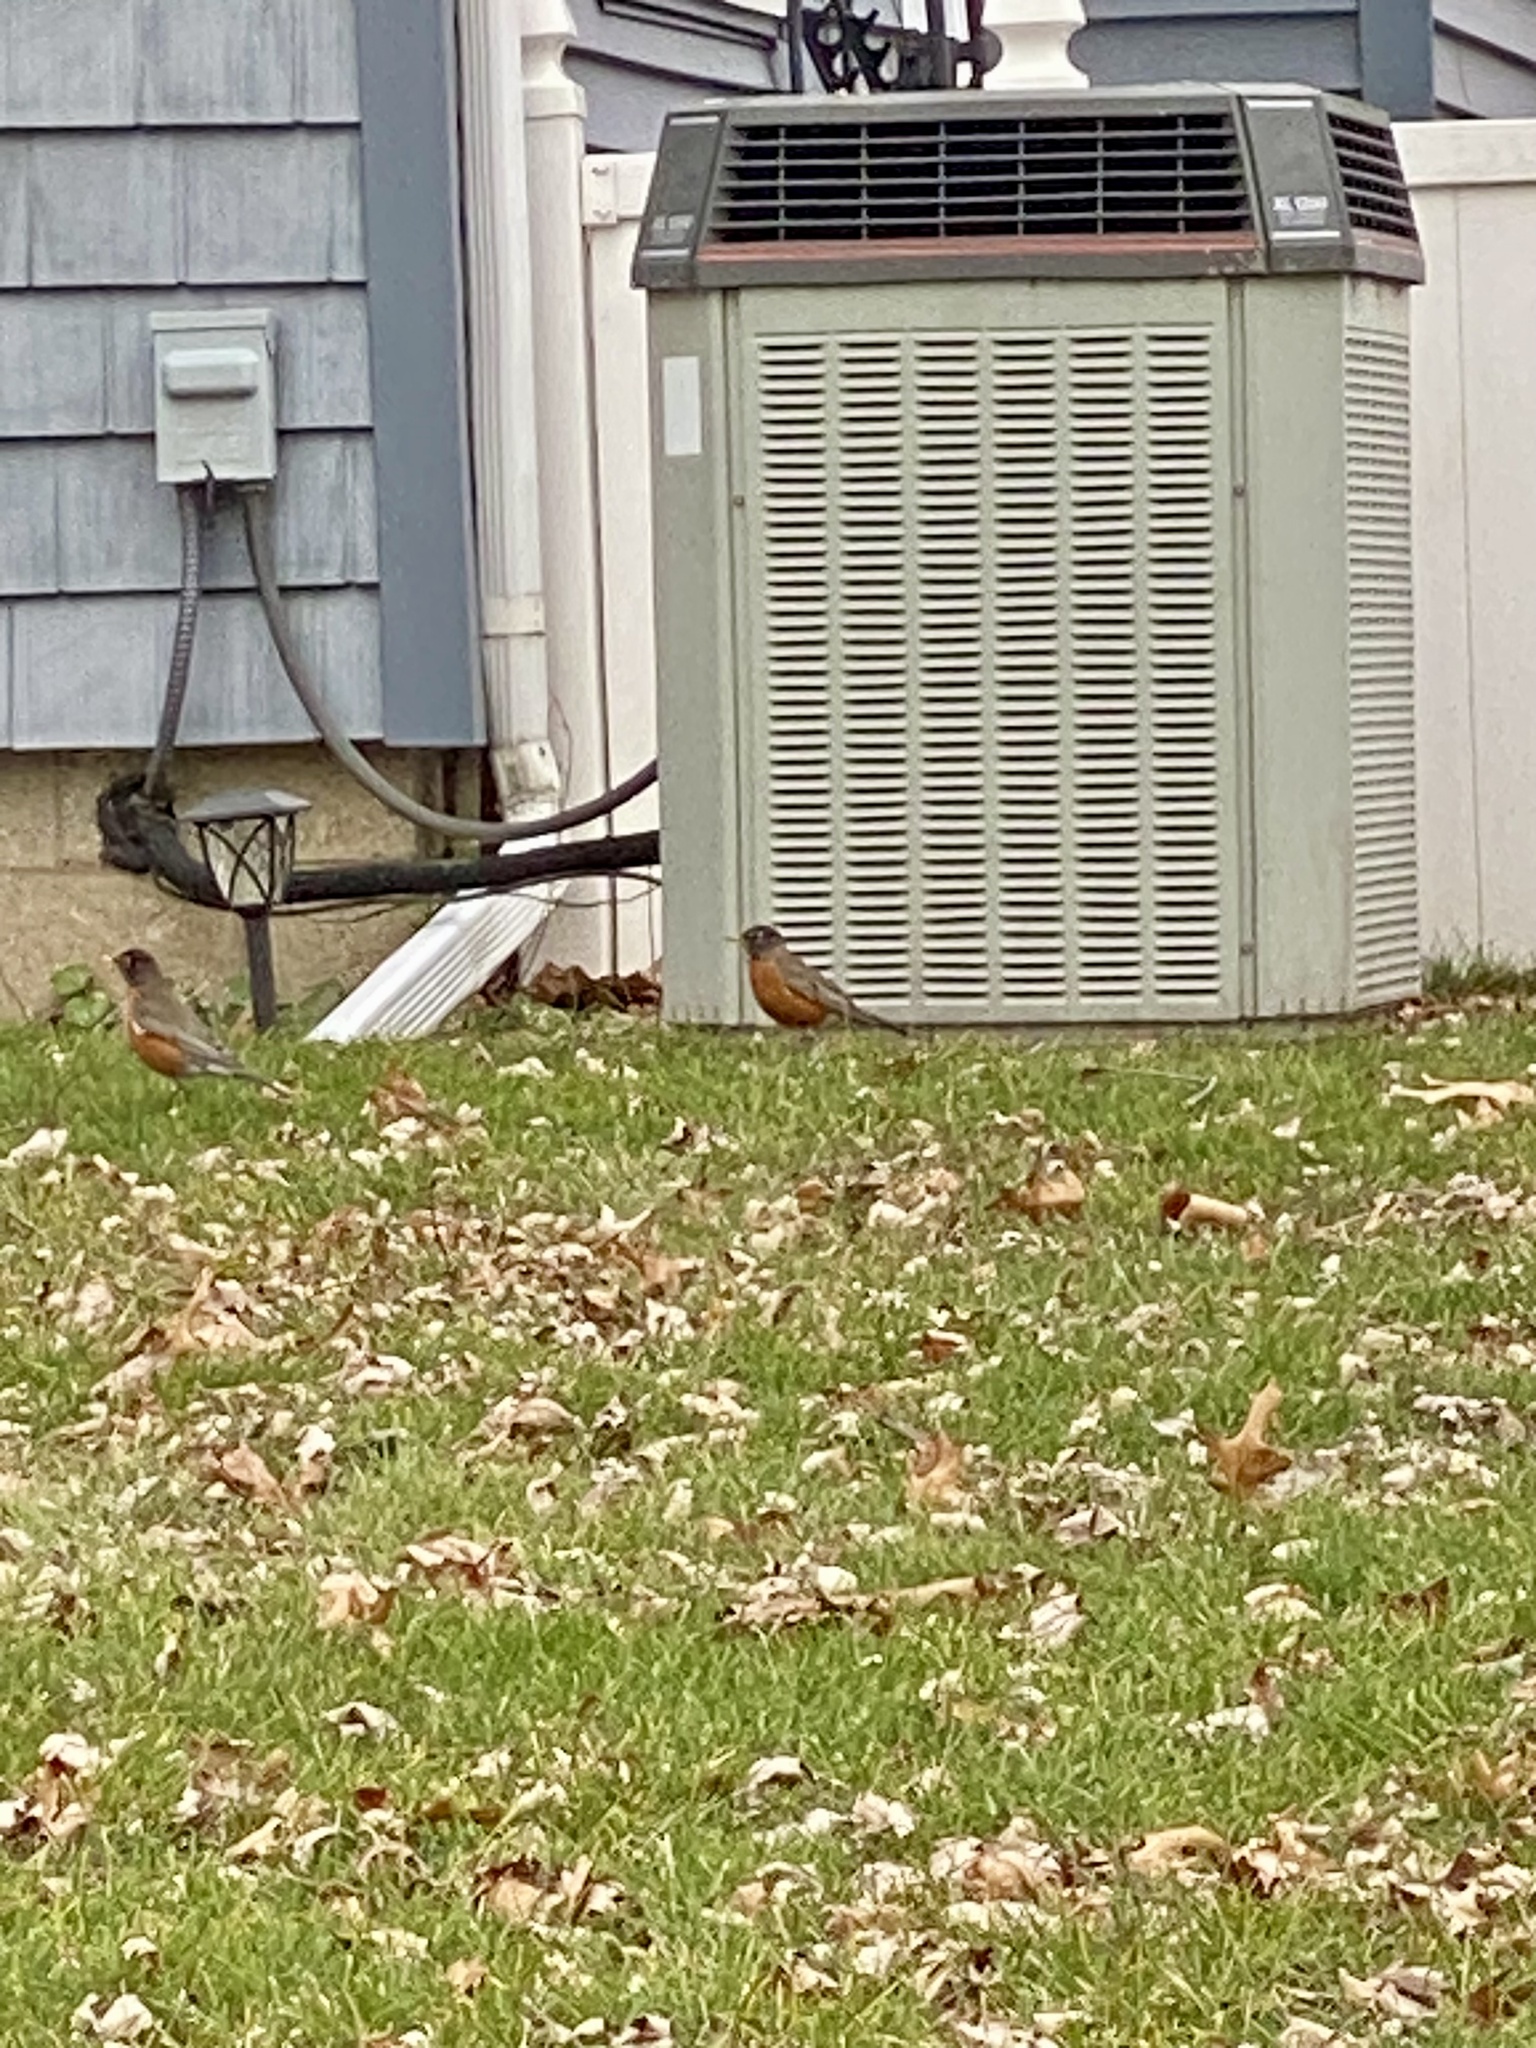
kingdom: Animalia
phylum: Chordata
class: Aves
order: Passeriformes
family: Turdidae
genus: Turdus
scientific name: Turdus migratorius
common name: American robin
